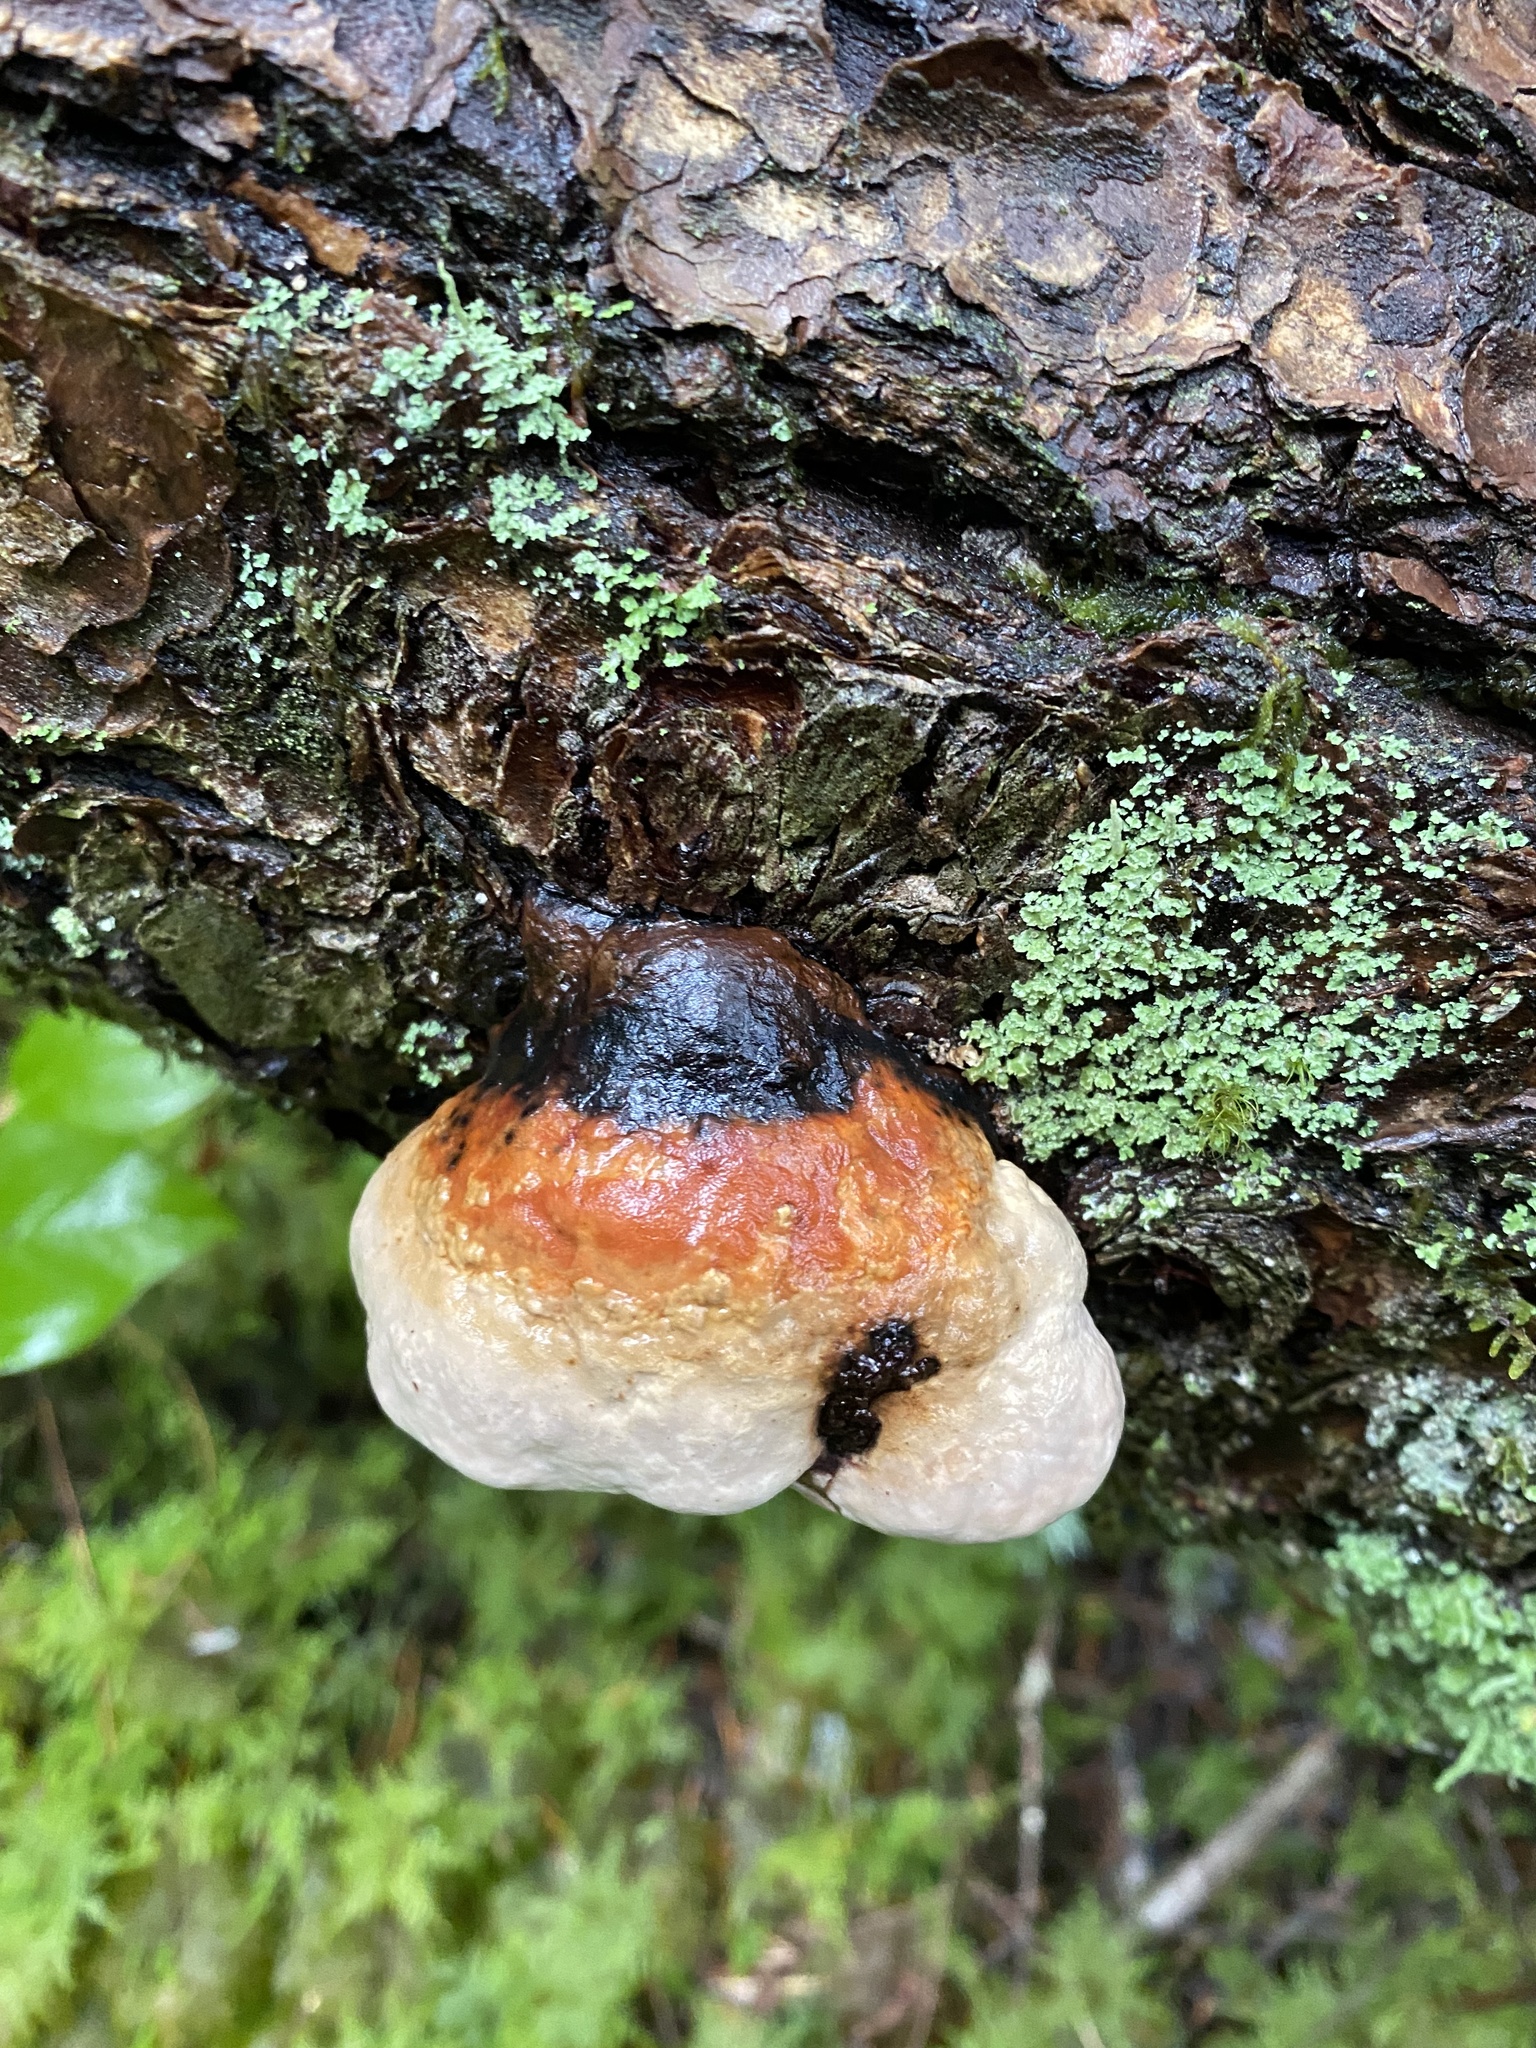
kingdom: Fungi
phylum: Basidiomycota
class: Agaricomycetes
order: Polyporales
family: Fomitopsidaceae
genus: Fomitopsis
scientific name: Fomitopsis mounceae
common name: Northern red belt
